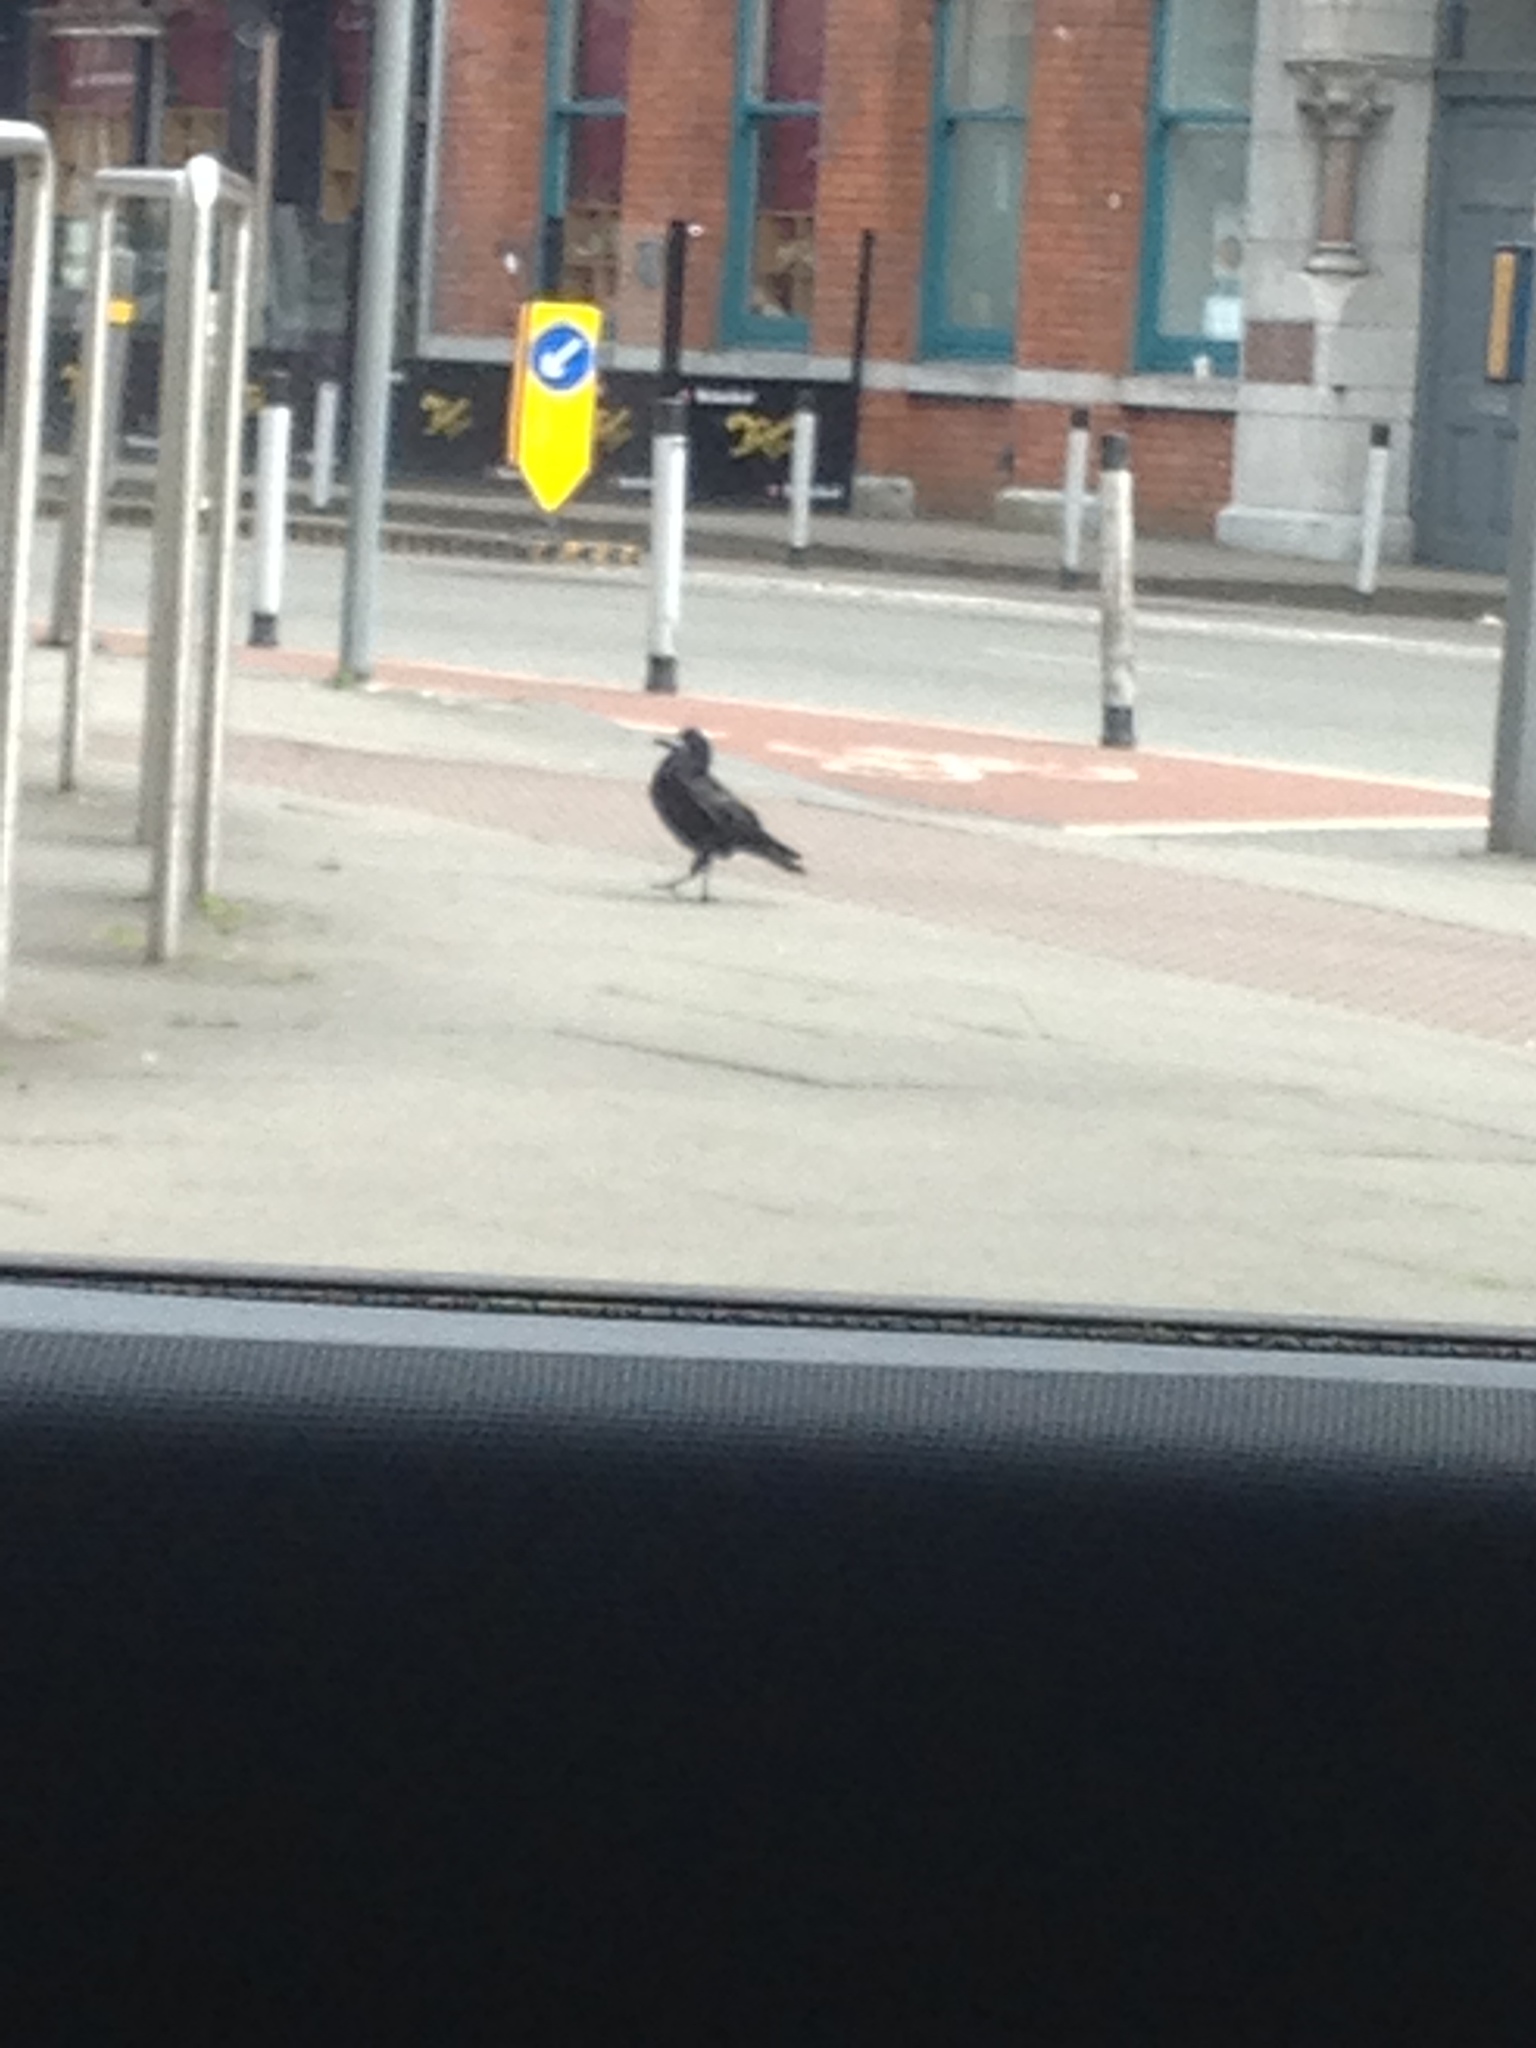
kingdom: Animalia
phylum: Chordata
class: Aves
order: Passeriformes
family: Corvidae
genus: Corvus
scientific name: Corvus frugilegus
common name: Rook
